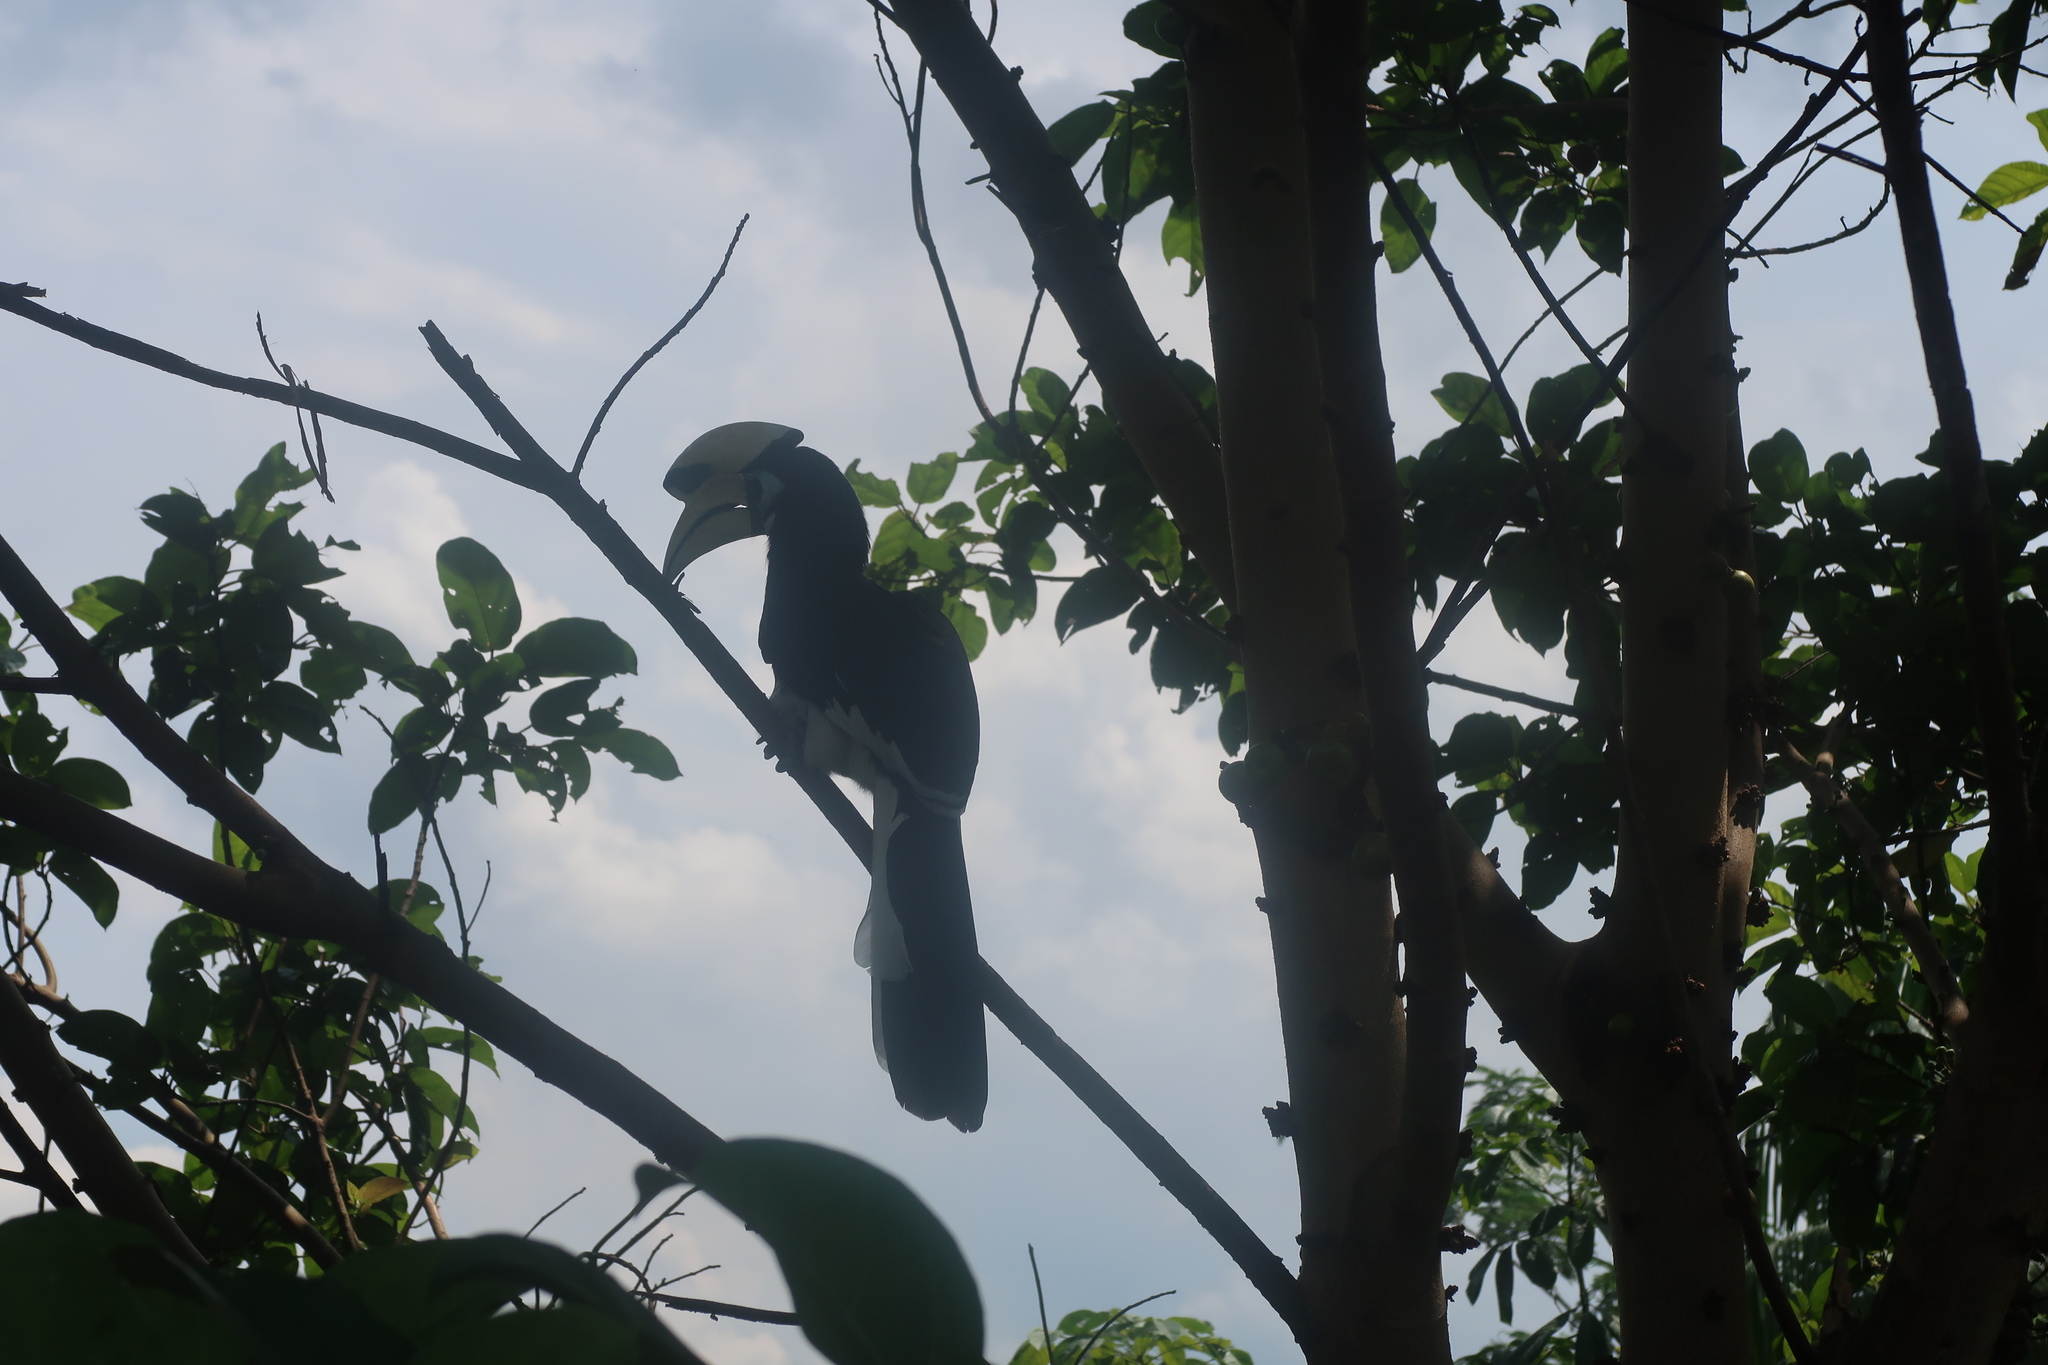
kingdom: Animalia
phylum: Chordata
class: Aves
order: Bucerotiformes
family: Bucerotidae
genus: Anthracoceros
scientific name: Anthracoceros albirostris
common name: Oriental pied-hornbill
